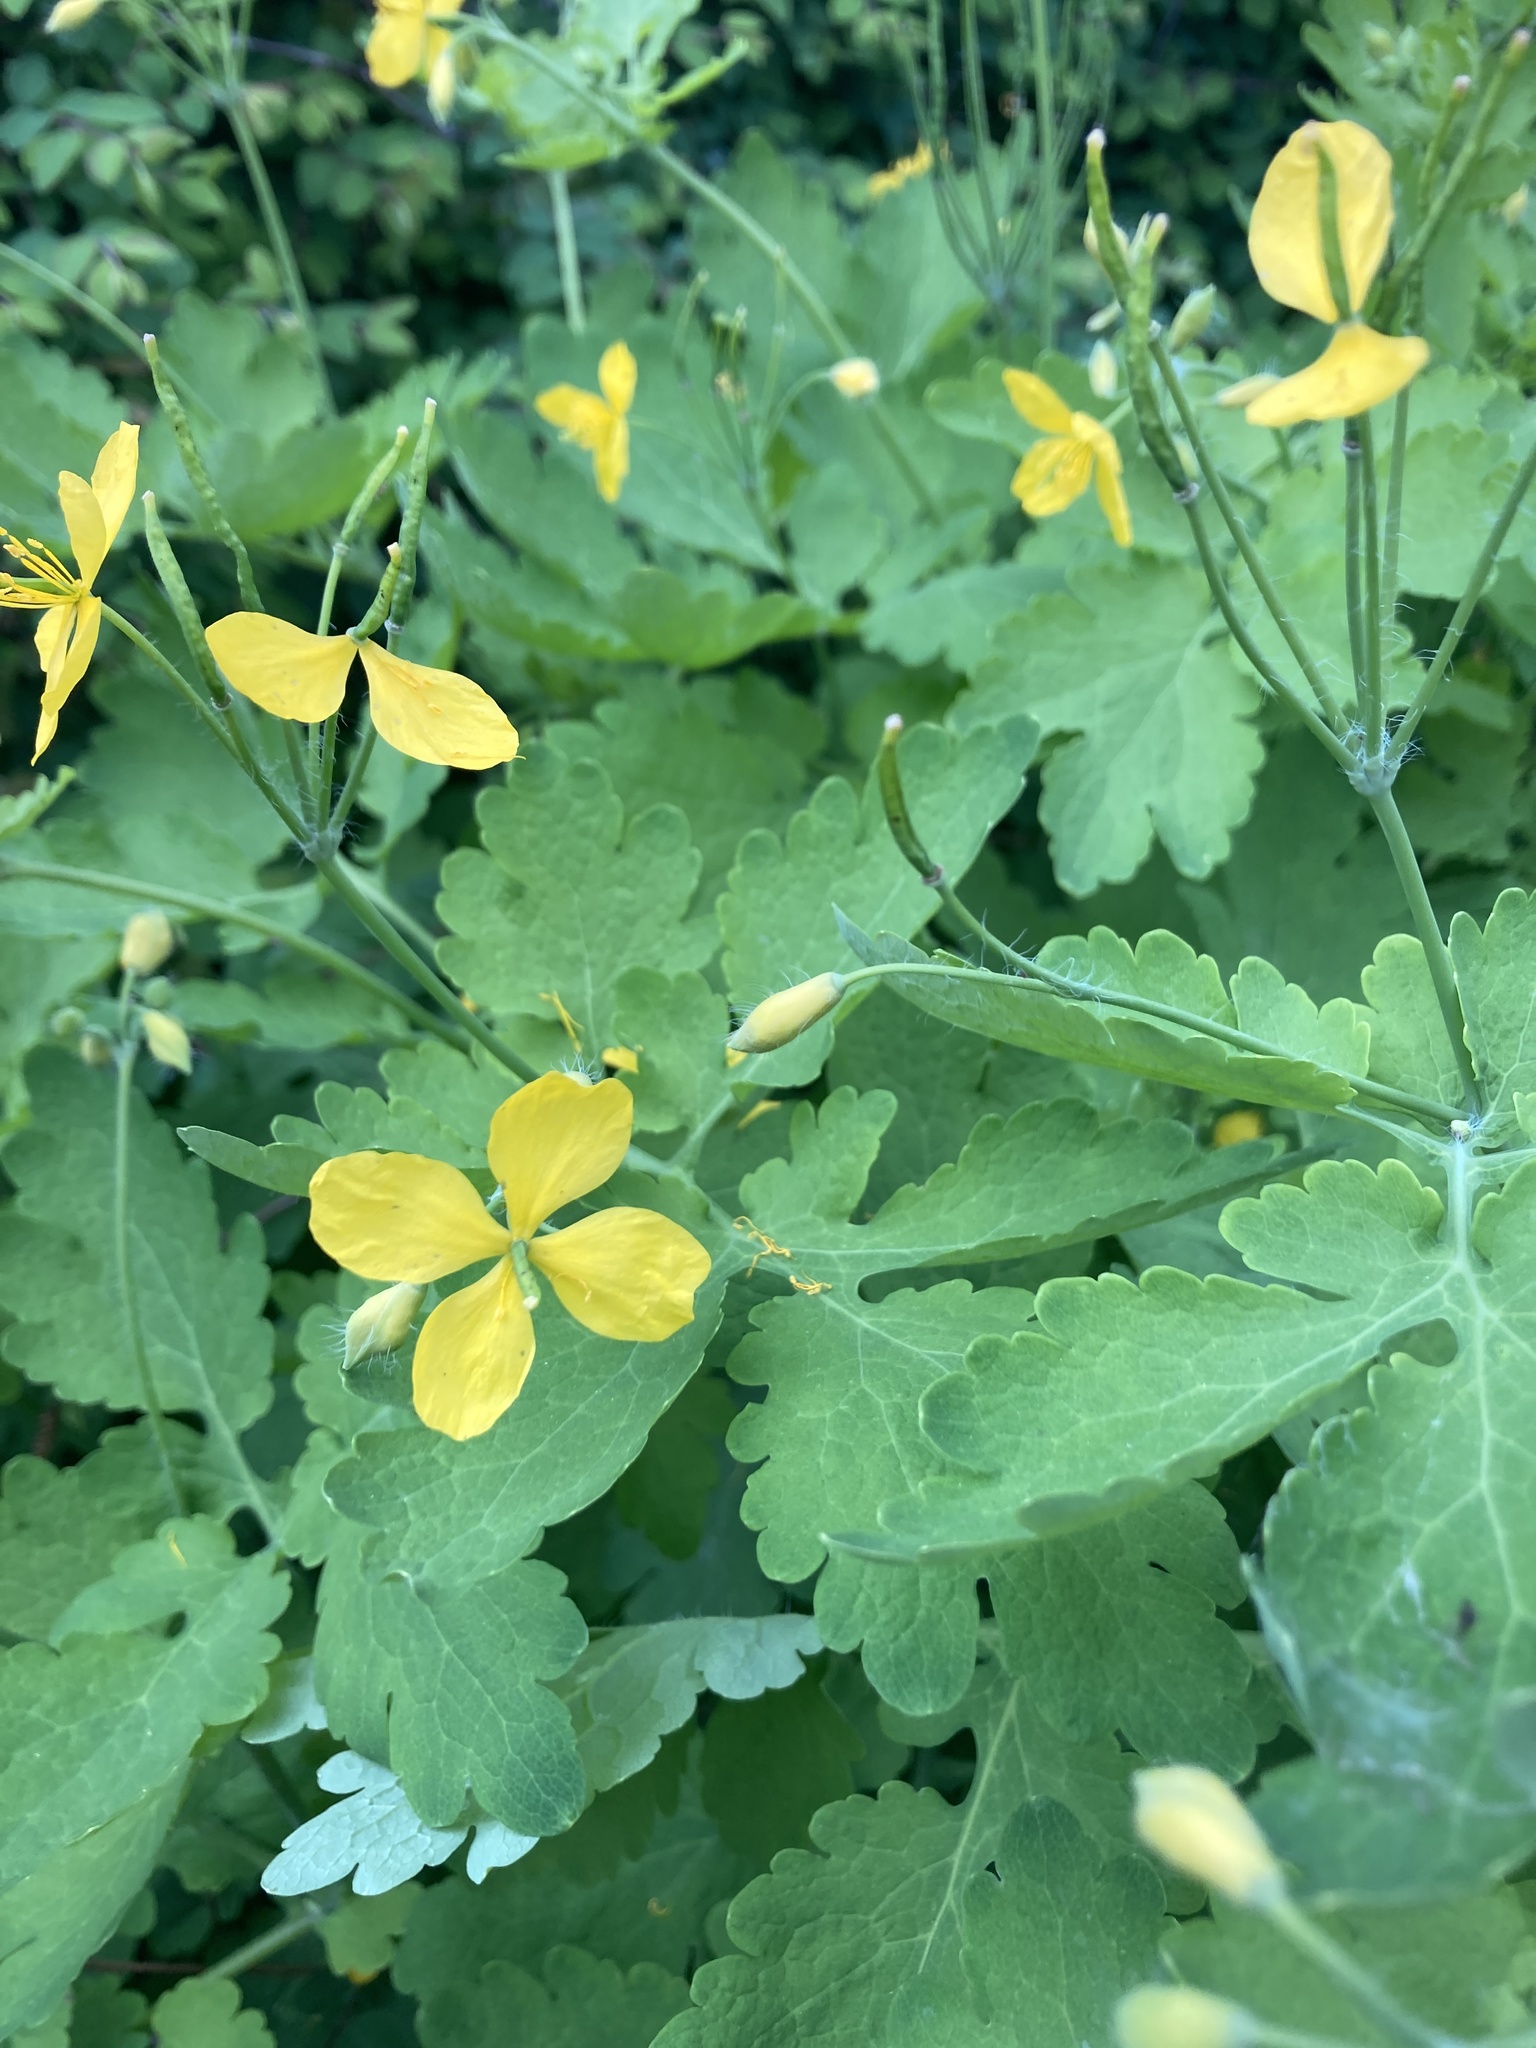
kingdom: Plantae
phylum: Tracheophyta
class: Magnoliopsida
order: Ranunculales
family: Papaveraceae
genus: Chelidonium
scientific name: Chelidonium majus
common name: Greater celandine
